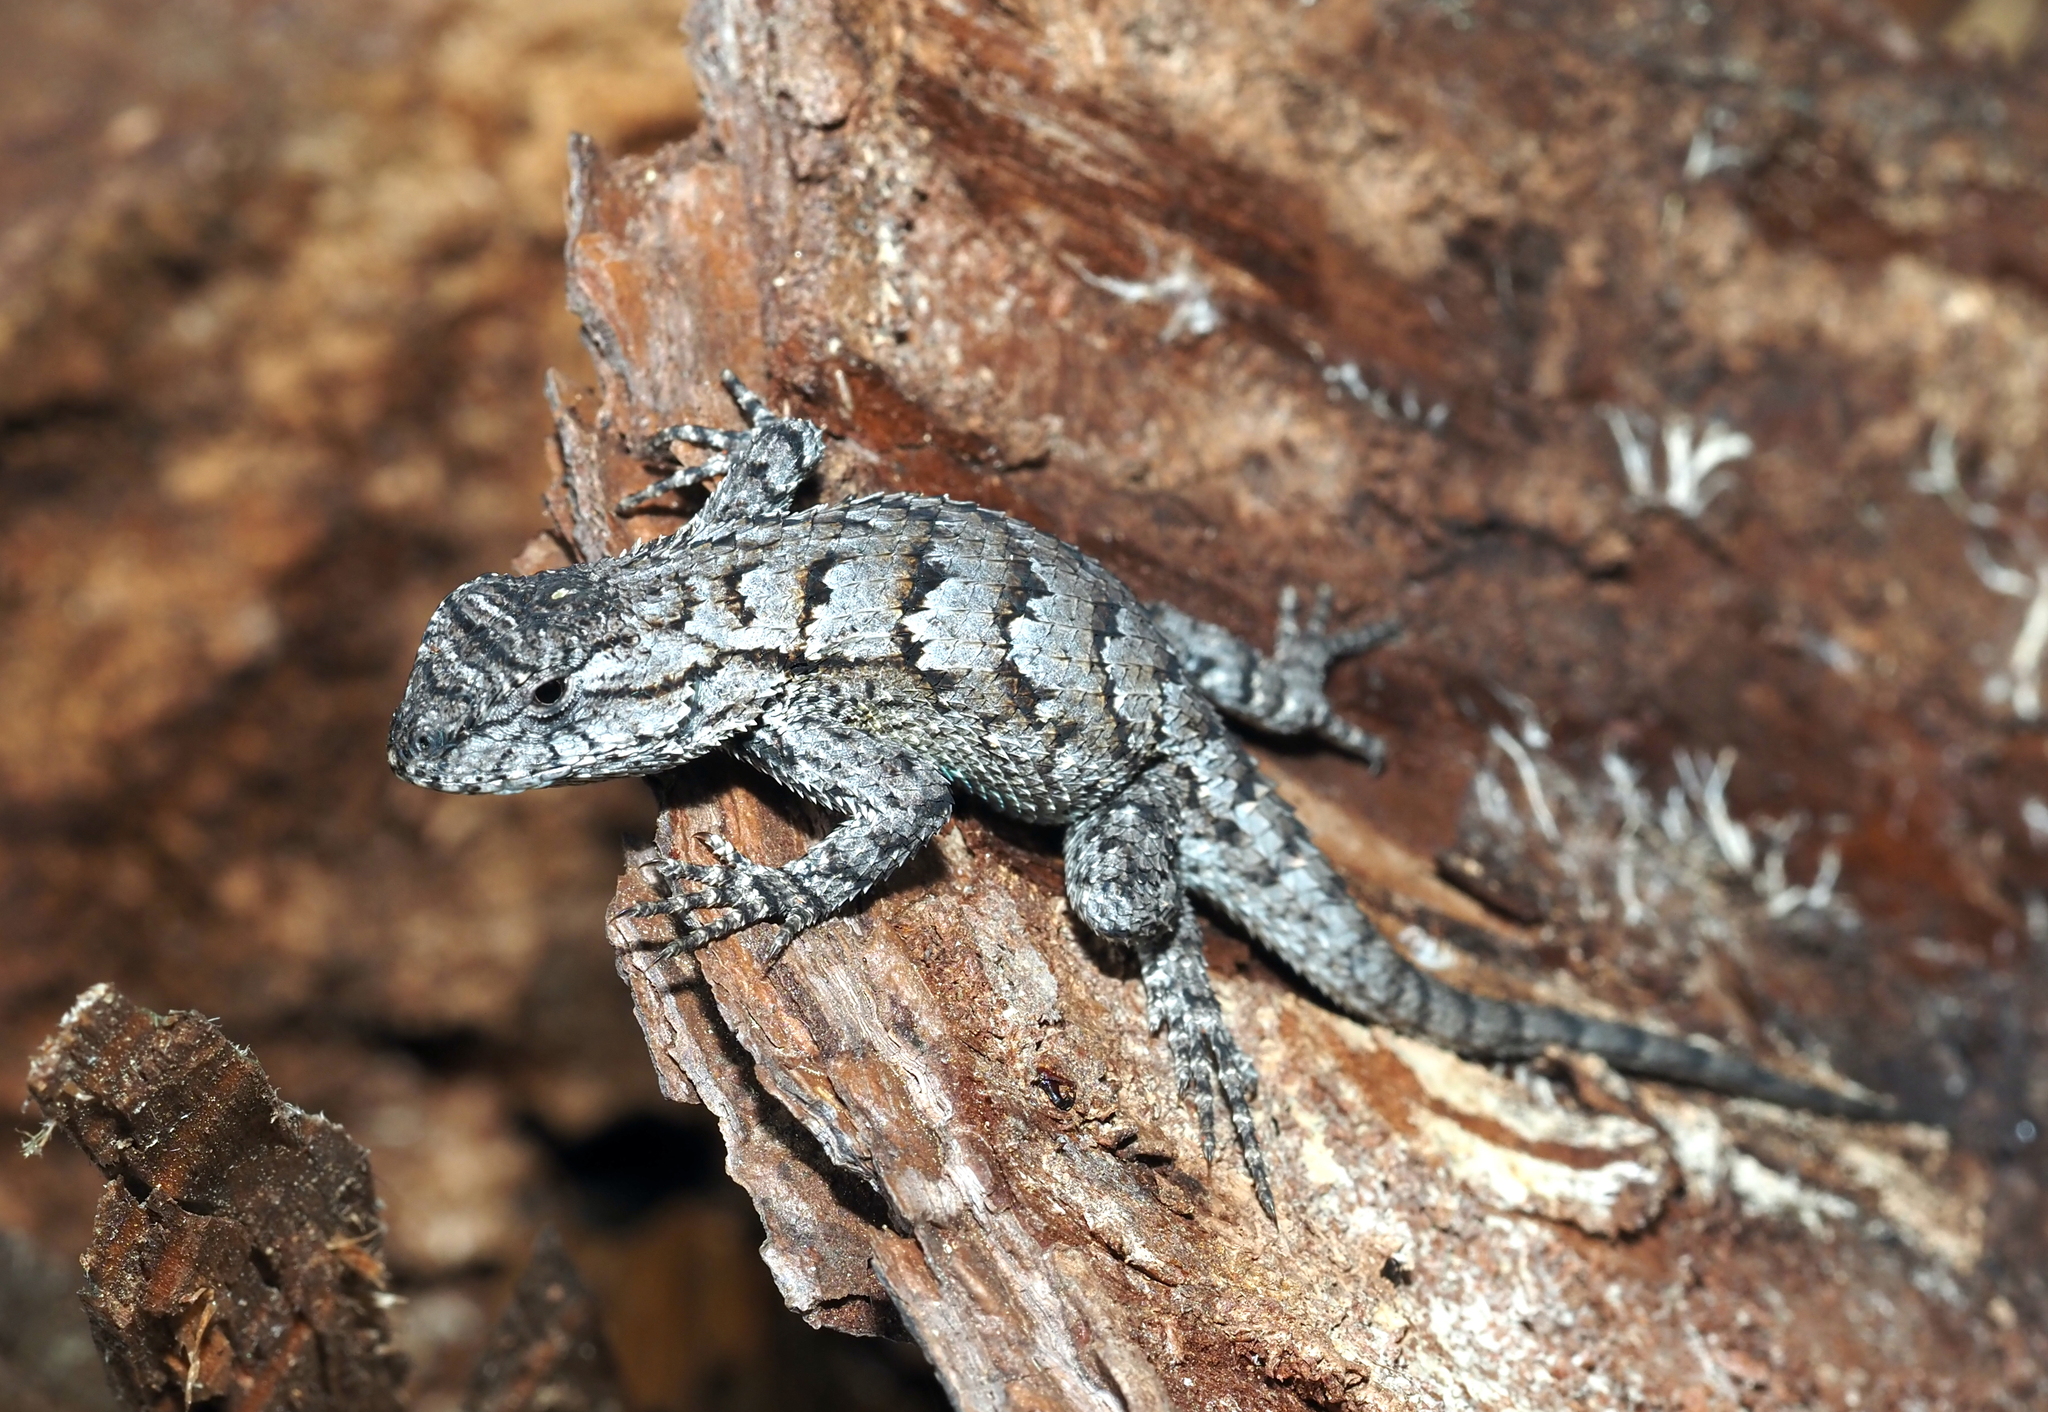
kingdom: Animalia
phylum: Chordata
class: Squamata
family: Phrynosomatidae
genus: Sceloporus
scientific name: Sceloporus undulatus
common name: Eastern fence lizard
